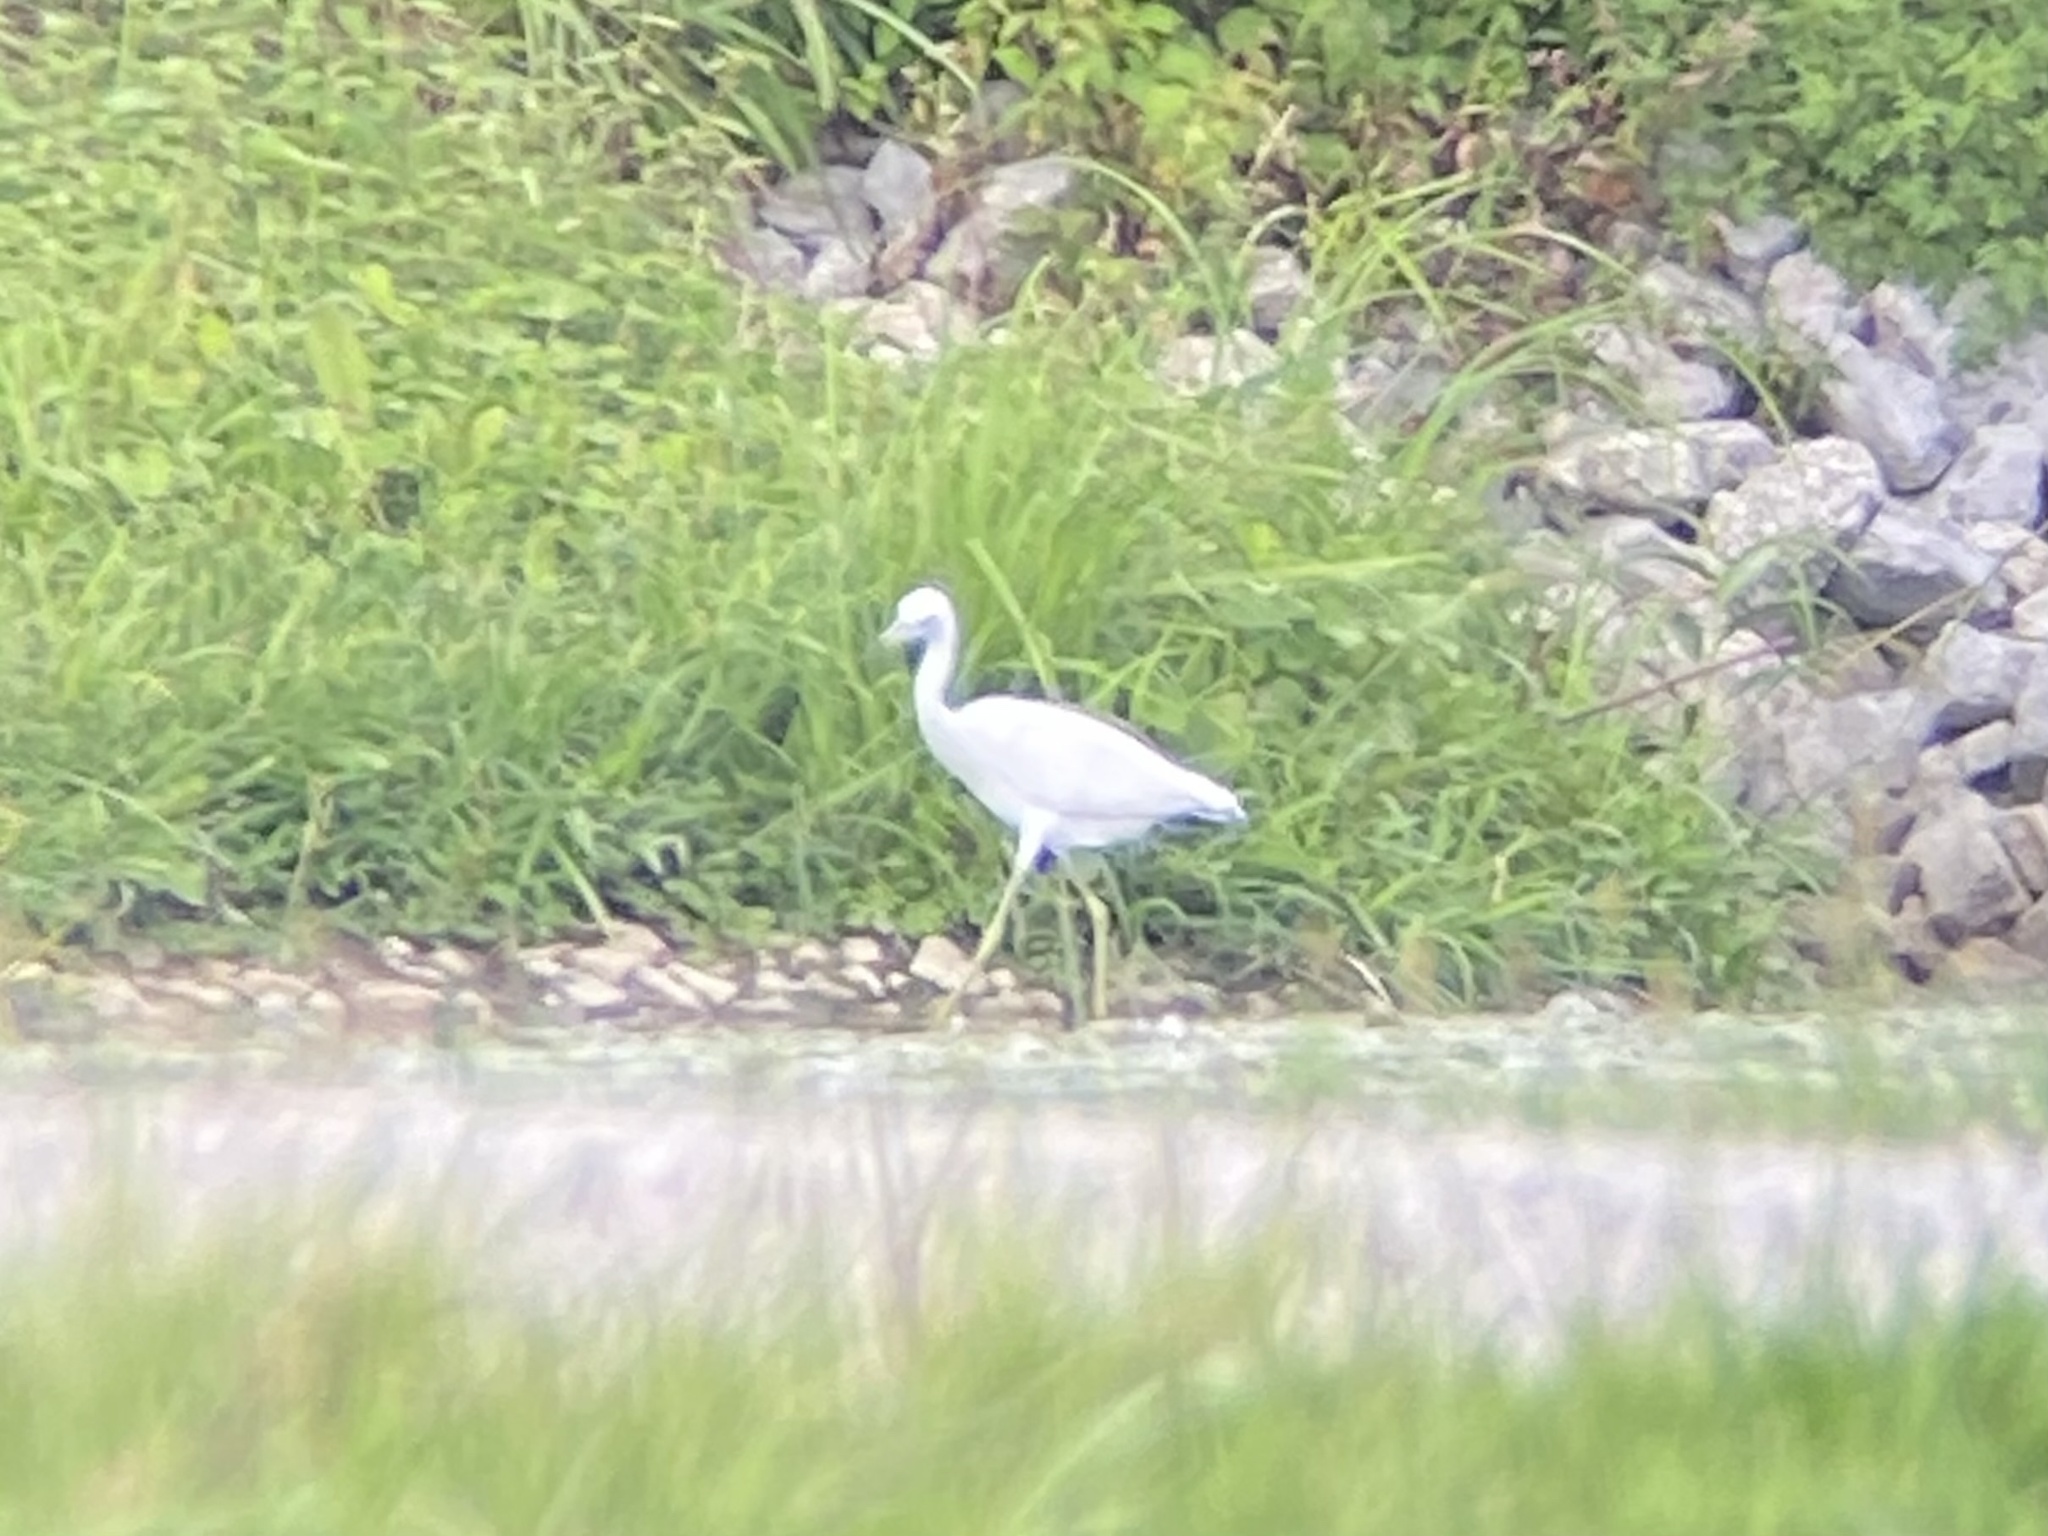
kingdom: Animalia
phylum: Chordata
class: Aves
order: Pelecaniformes
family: Ardeidae
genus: Egretta
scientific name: Egretta caerulea
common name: Little blue heron
